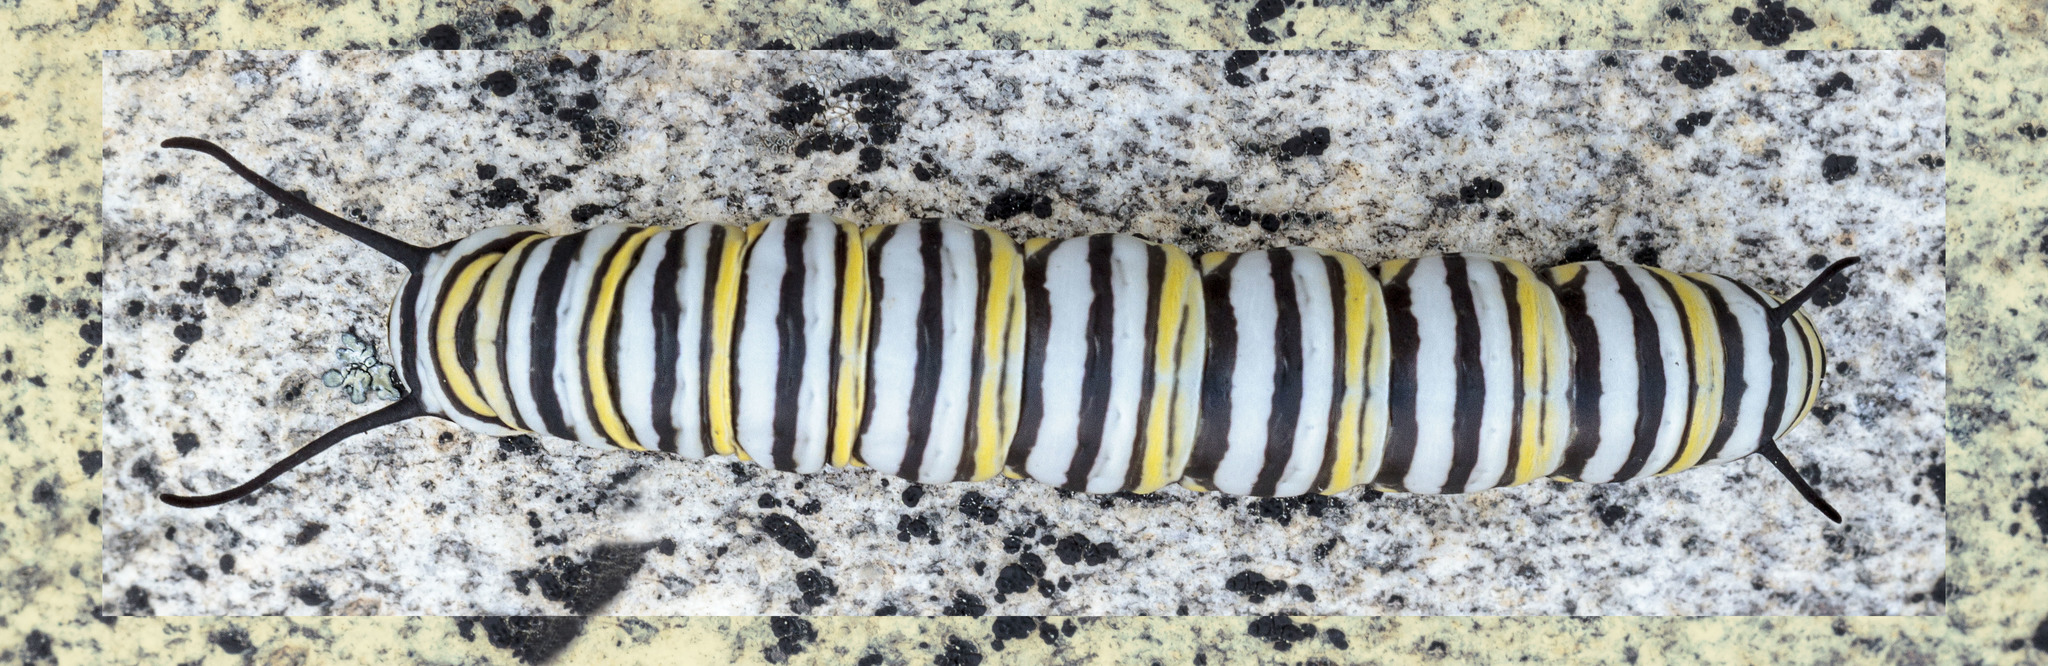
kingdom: Animalia
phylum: Arthropoda
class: Insecta
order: Lepidoptera
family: Nymphalidae
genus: Danaus
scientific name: Danaus plexippus
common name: Monarch
